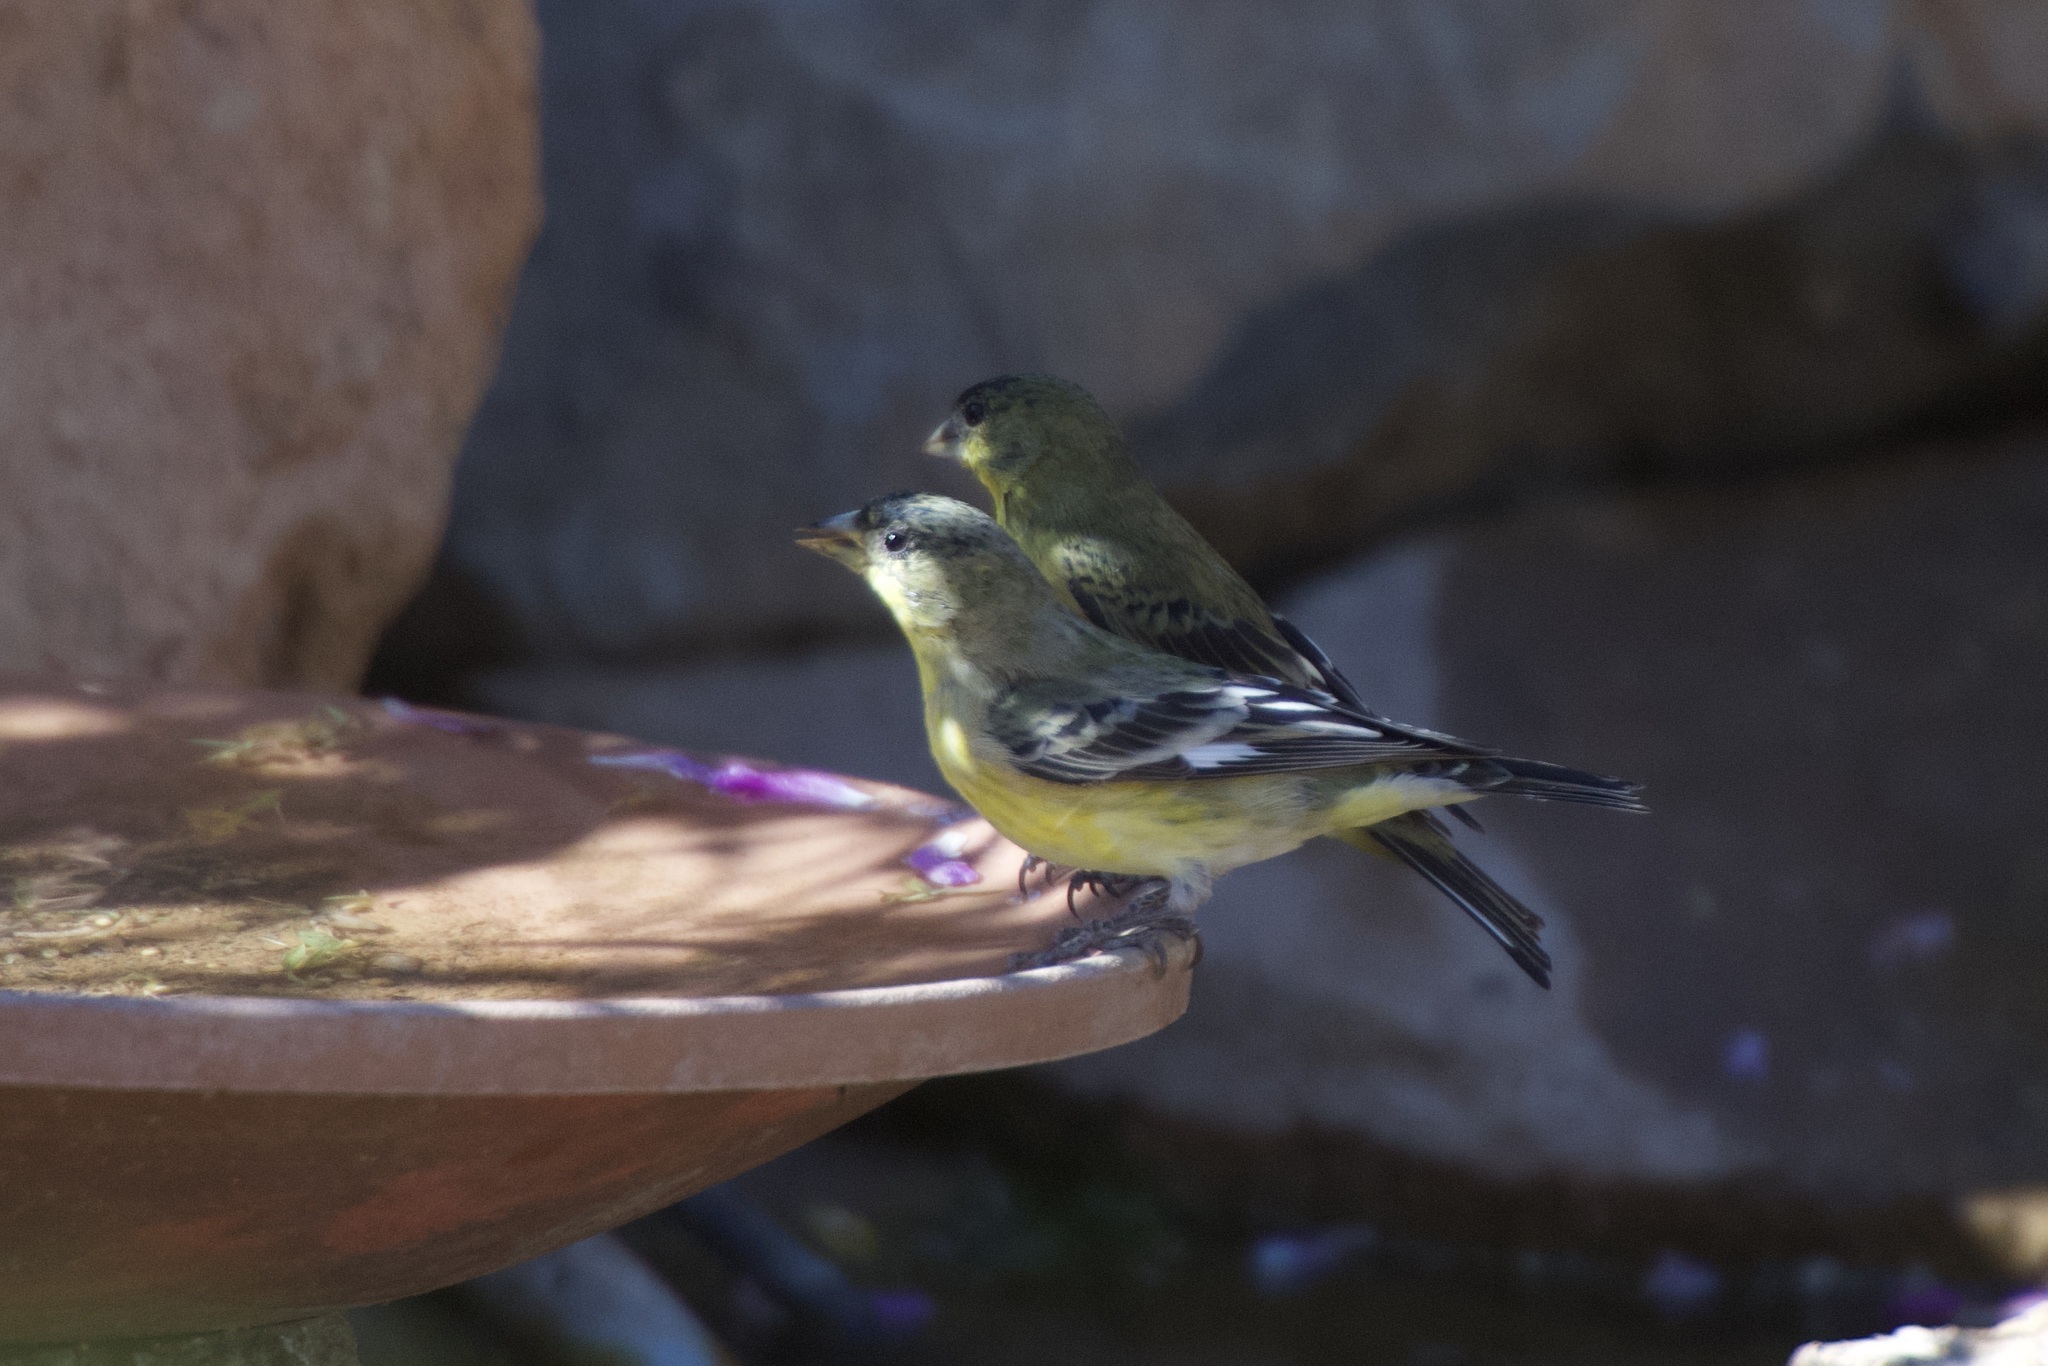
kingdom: Animalia
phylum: Chordata
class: Aves
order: Passeriformes
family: Fringillidae
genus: Spinus
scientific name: Spinus psaltria
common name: Lesser goldfinch
